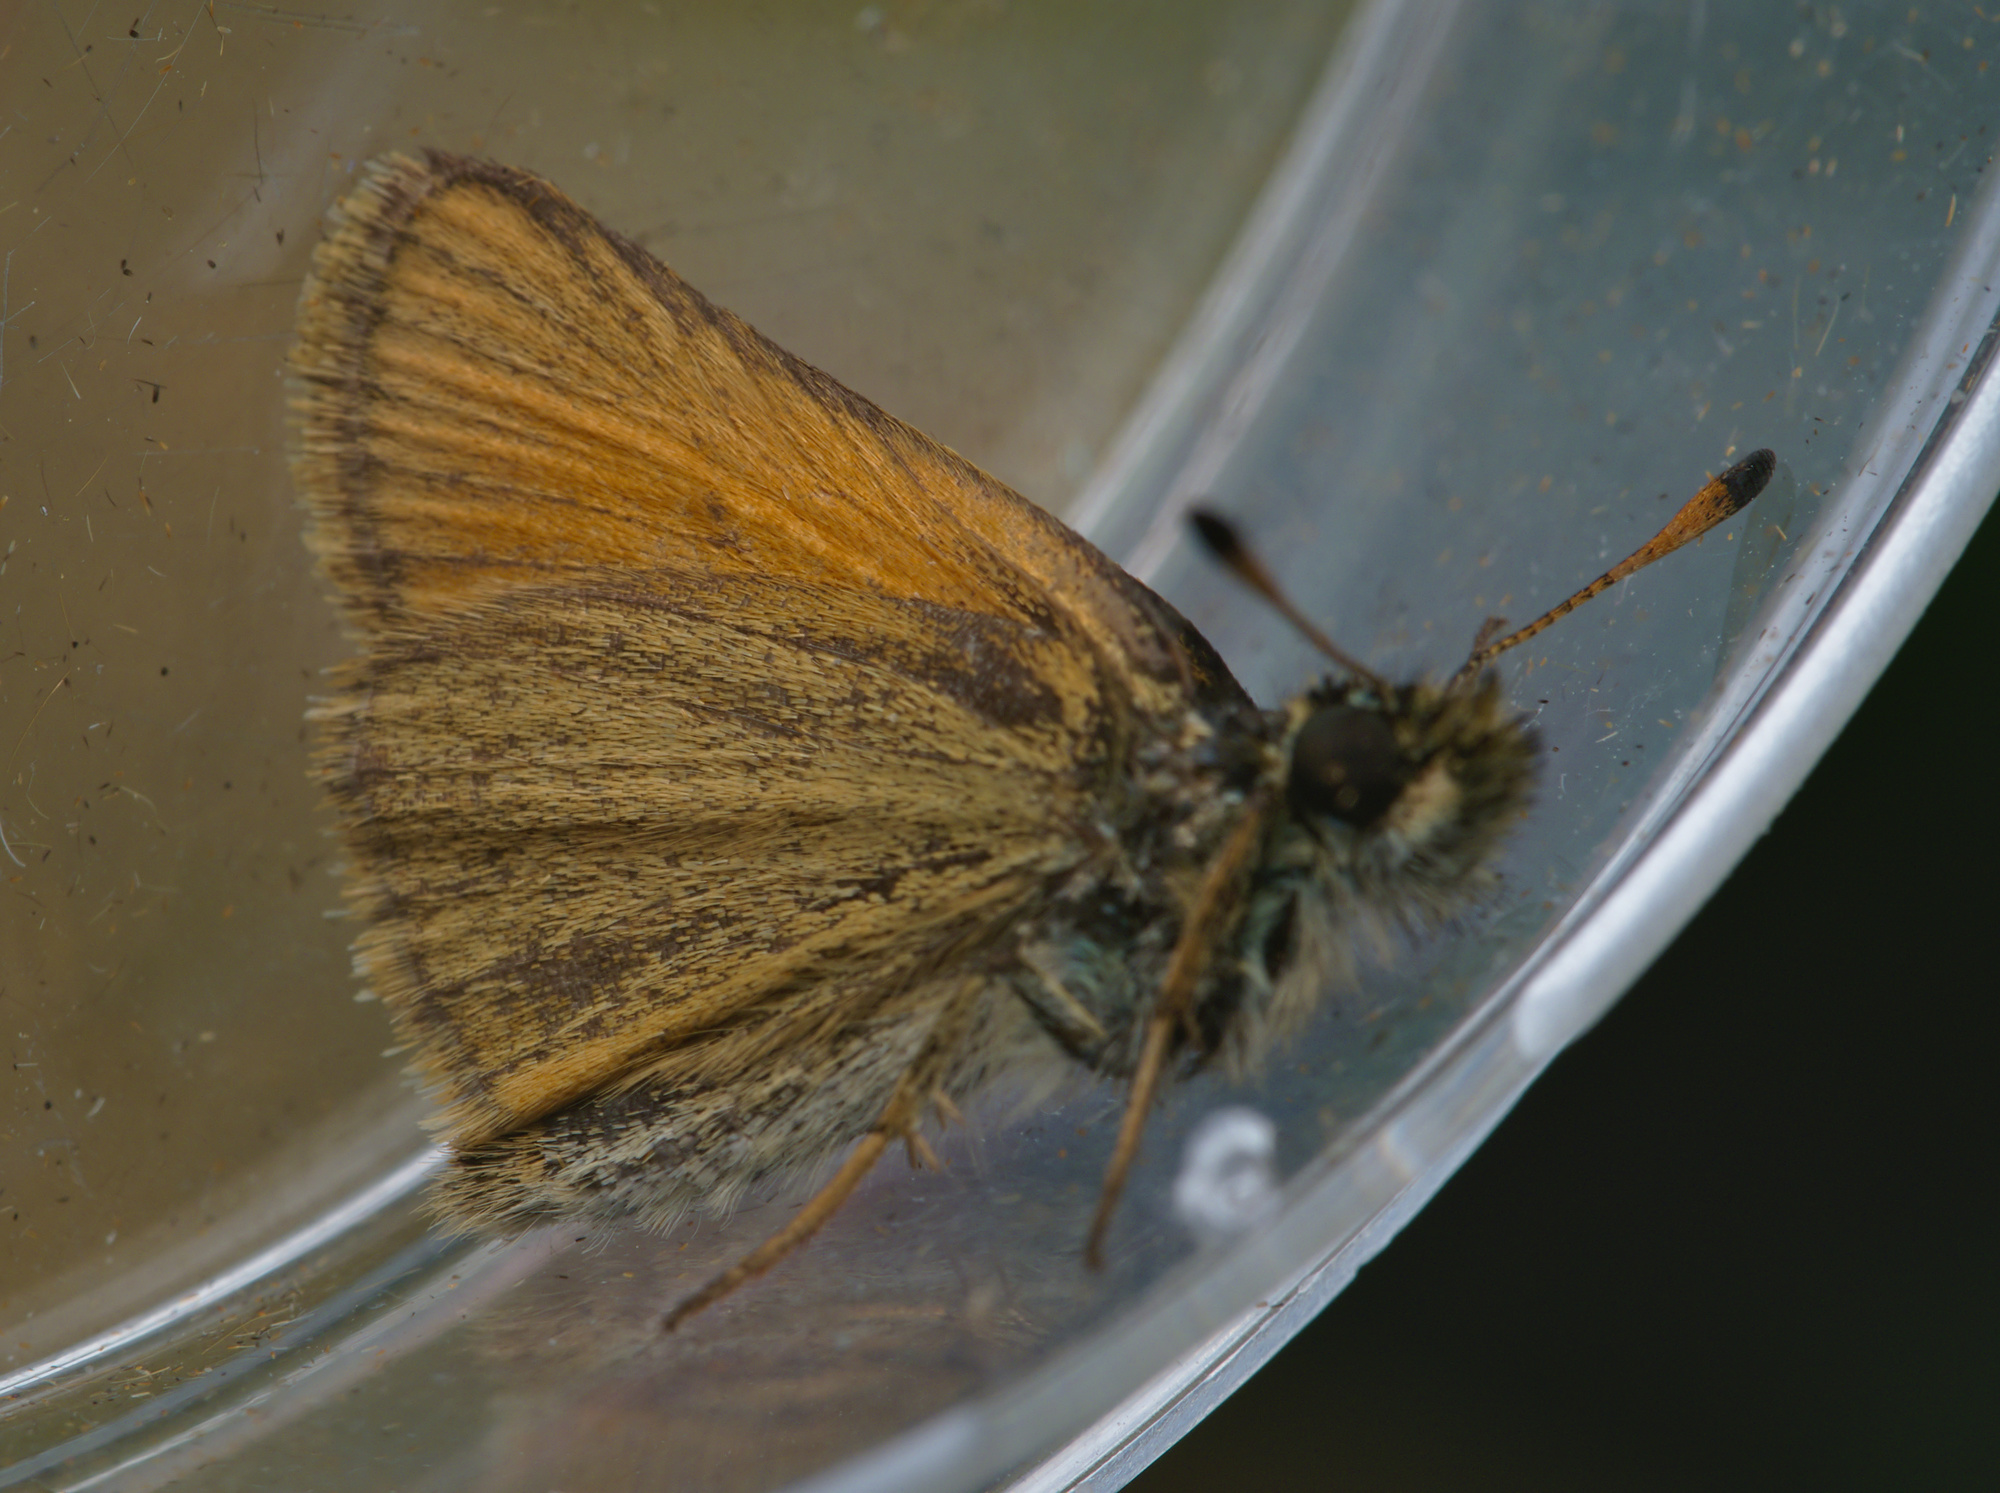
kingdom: Animalia
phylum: Arthropoda
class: Insecta
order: Lepidoptera
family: Hesperiidae
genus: Thymelicus
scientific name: Thymelicus lineola
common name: Essex skipper
